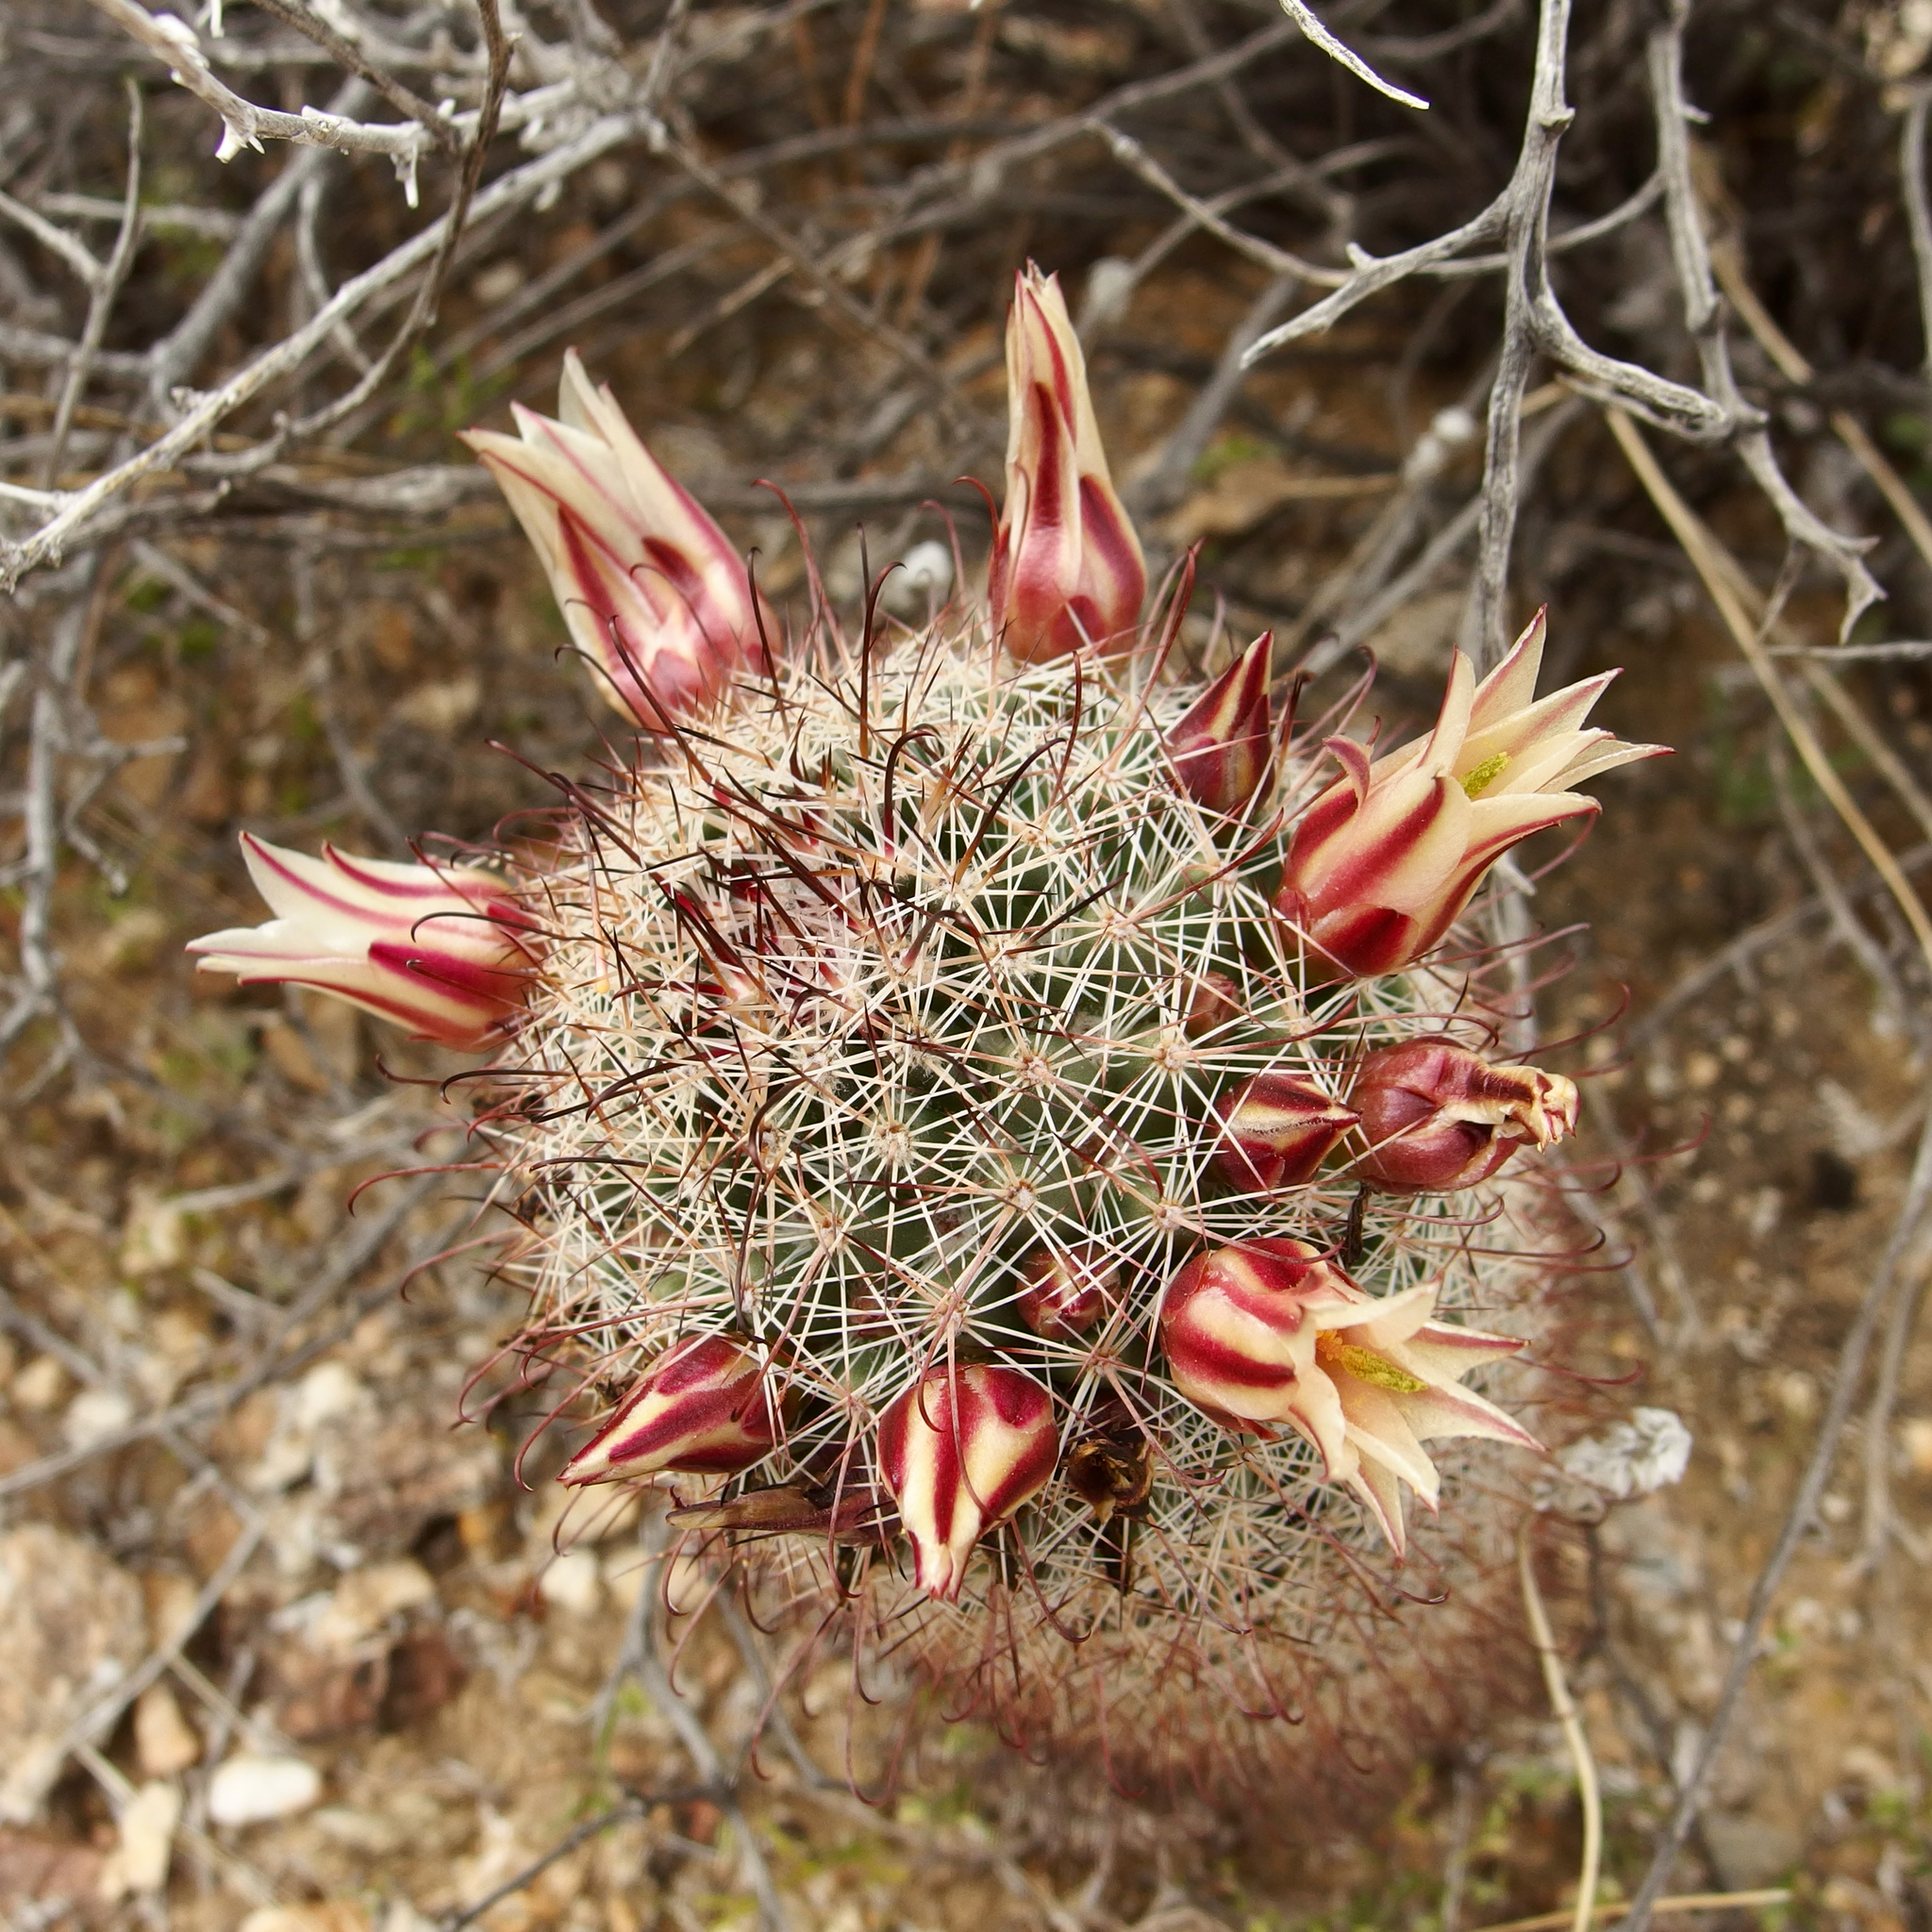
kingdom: Plantae
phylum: Tracheophyta
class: Magnoliopsida
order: Caryophyllales
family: Cactaceae
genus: Cochemiea
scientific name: Cochemiea dioica
